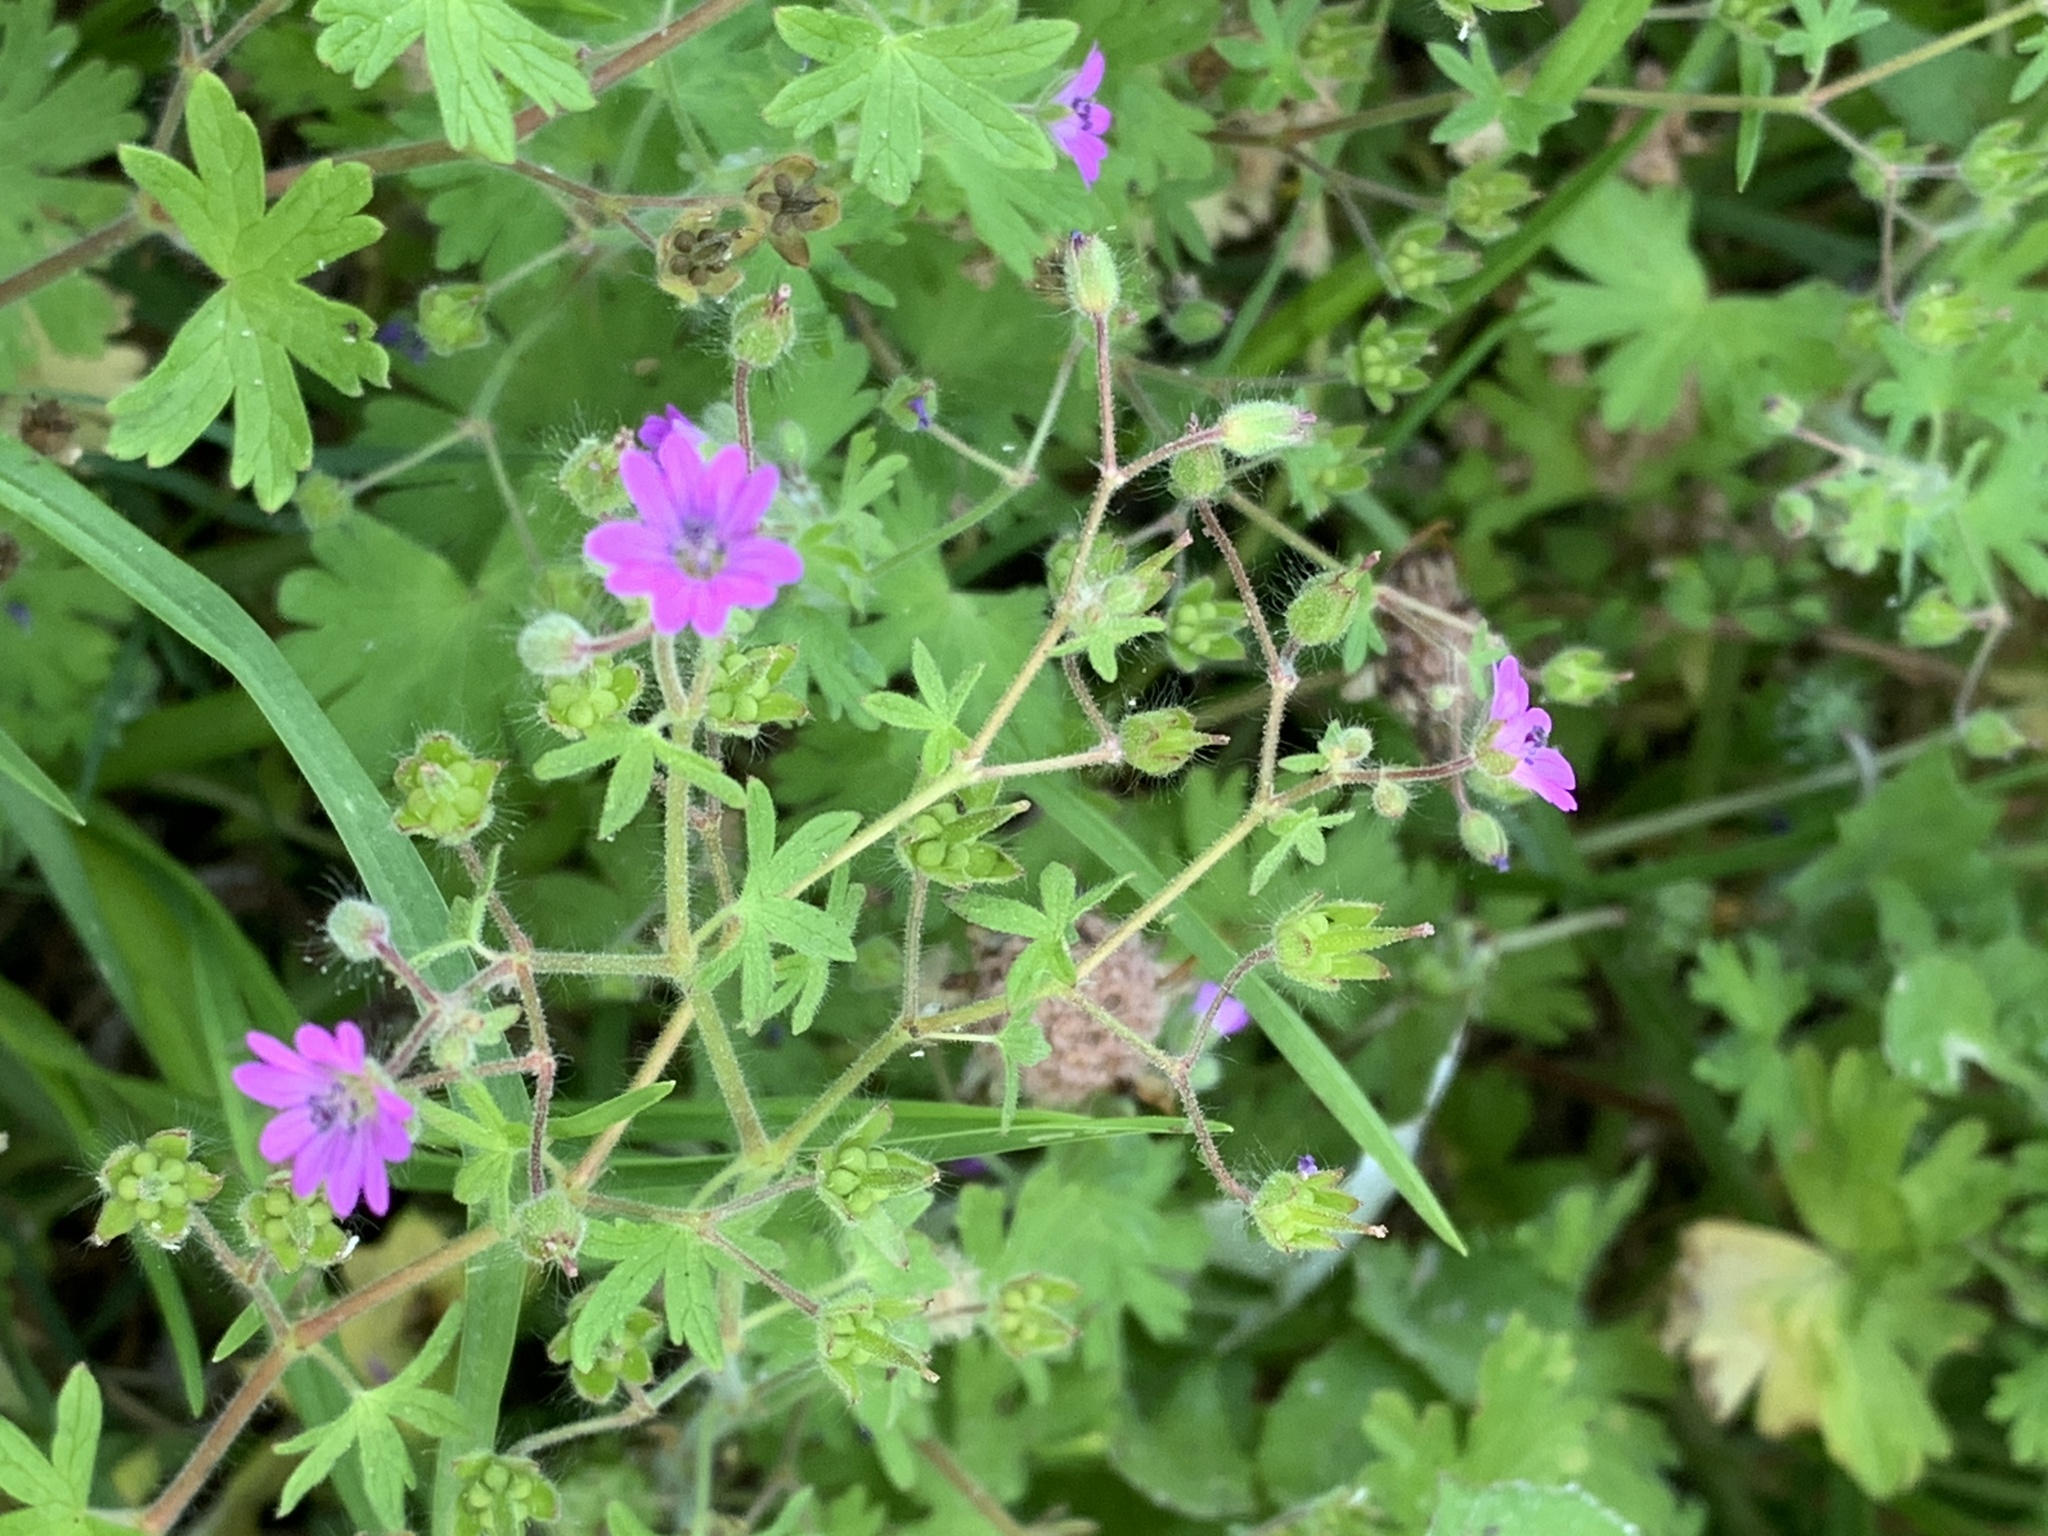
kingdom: Plantae
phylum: Tracheophyta
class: Magnoliopsida
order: Geraniales
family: Geraniaceae
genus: Geranium
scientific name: Geranium molle
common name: Dove's-foot crane's-bill
